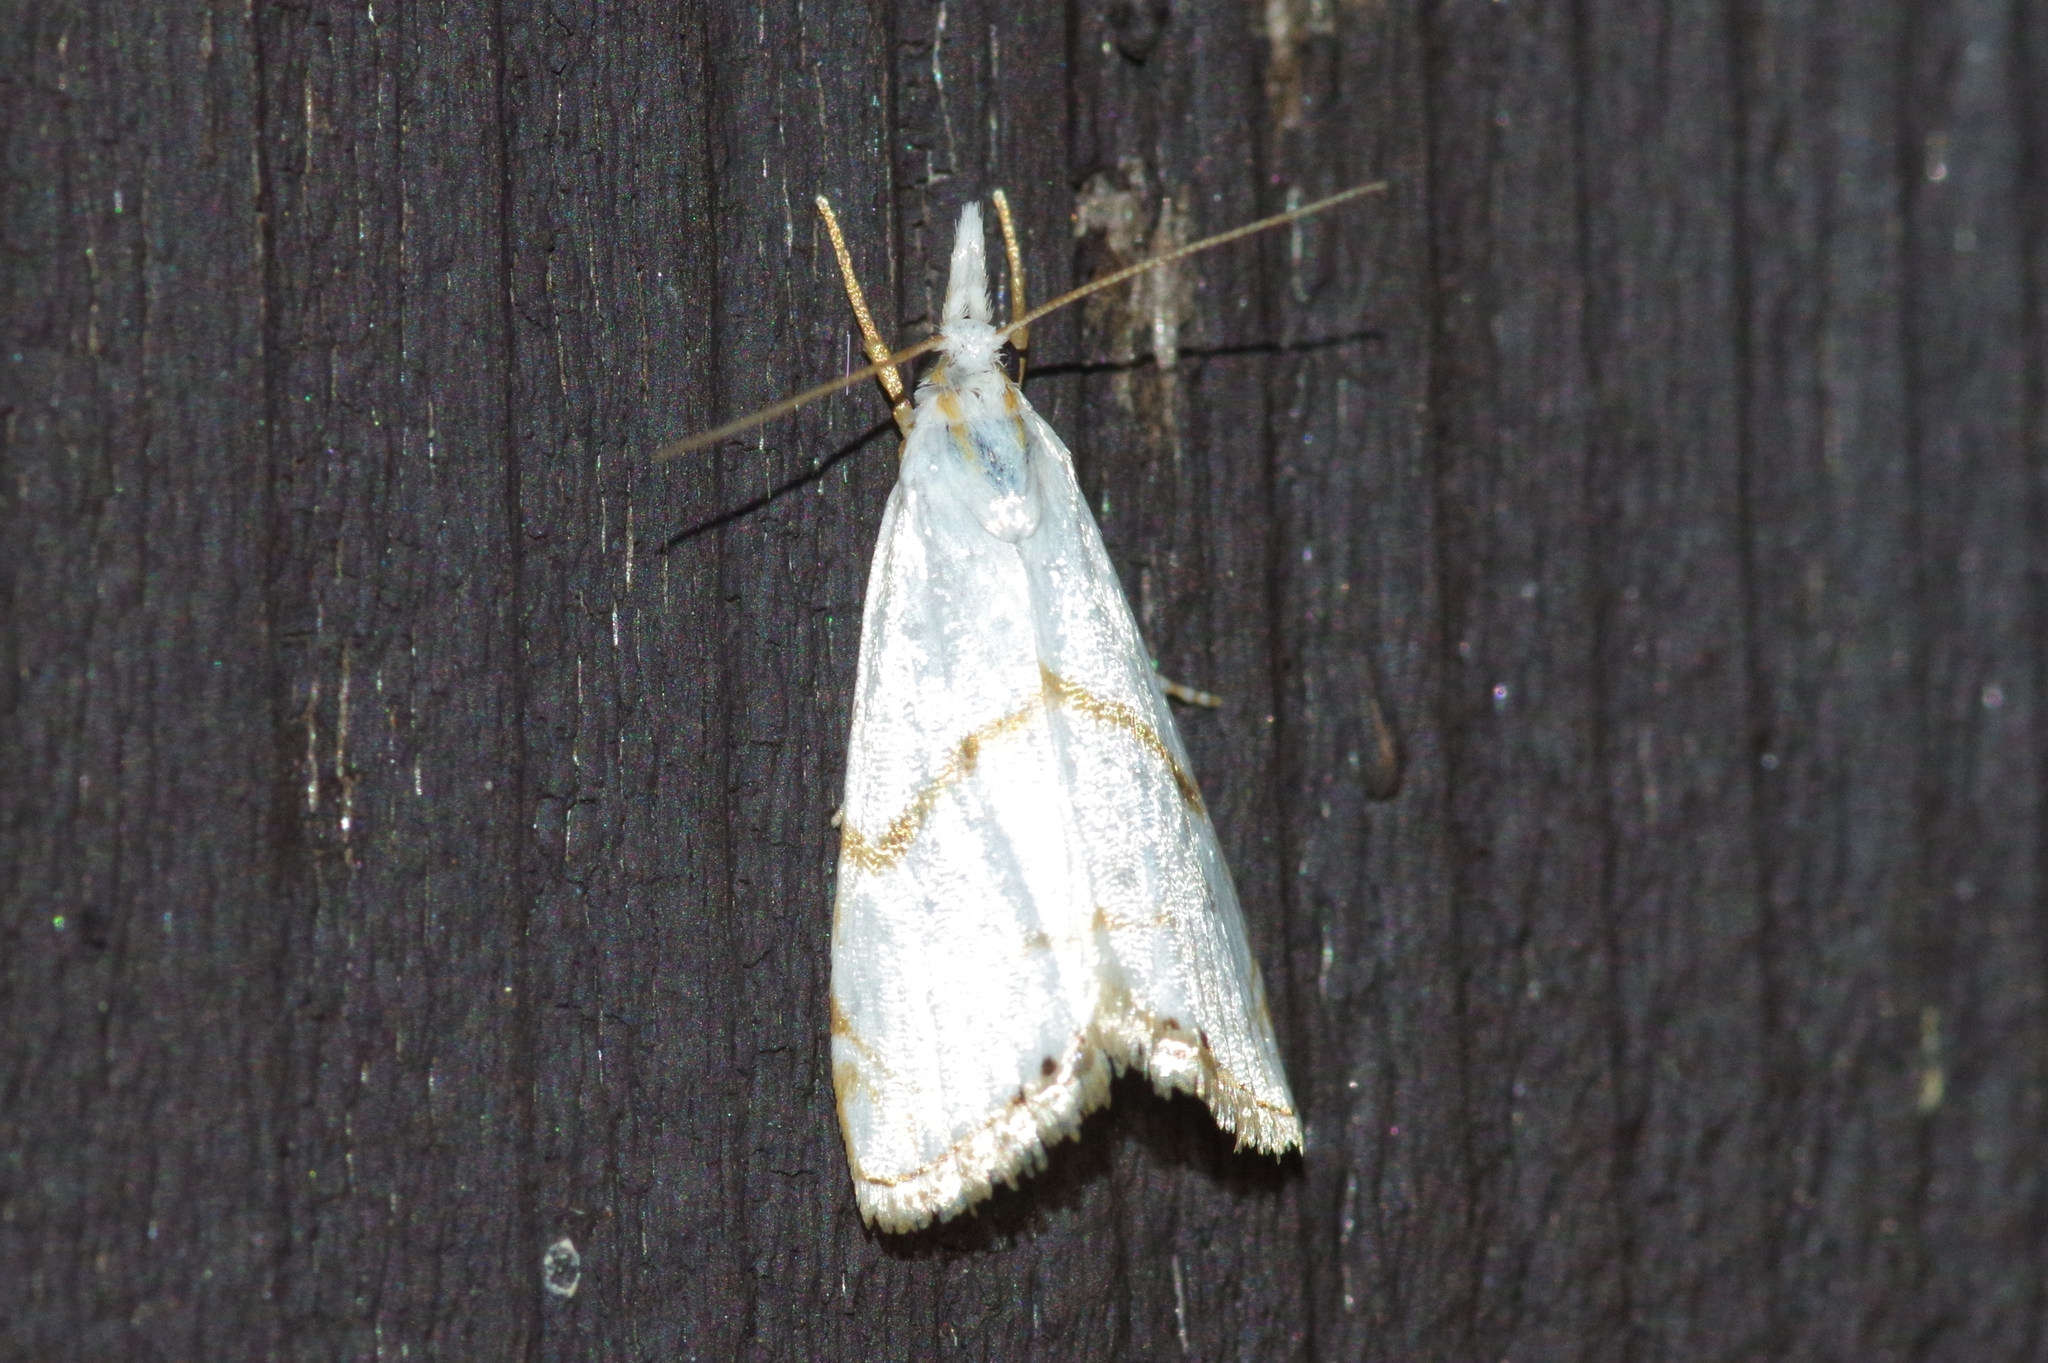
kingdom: Animalia
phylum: Arthropoda
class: Insecta
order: Lepidoptera
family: Crambidae
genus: Pseudargyria
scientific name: Pseudargyria interruptella
